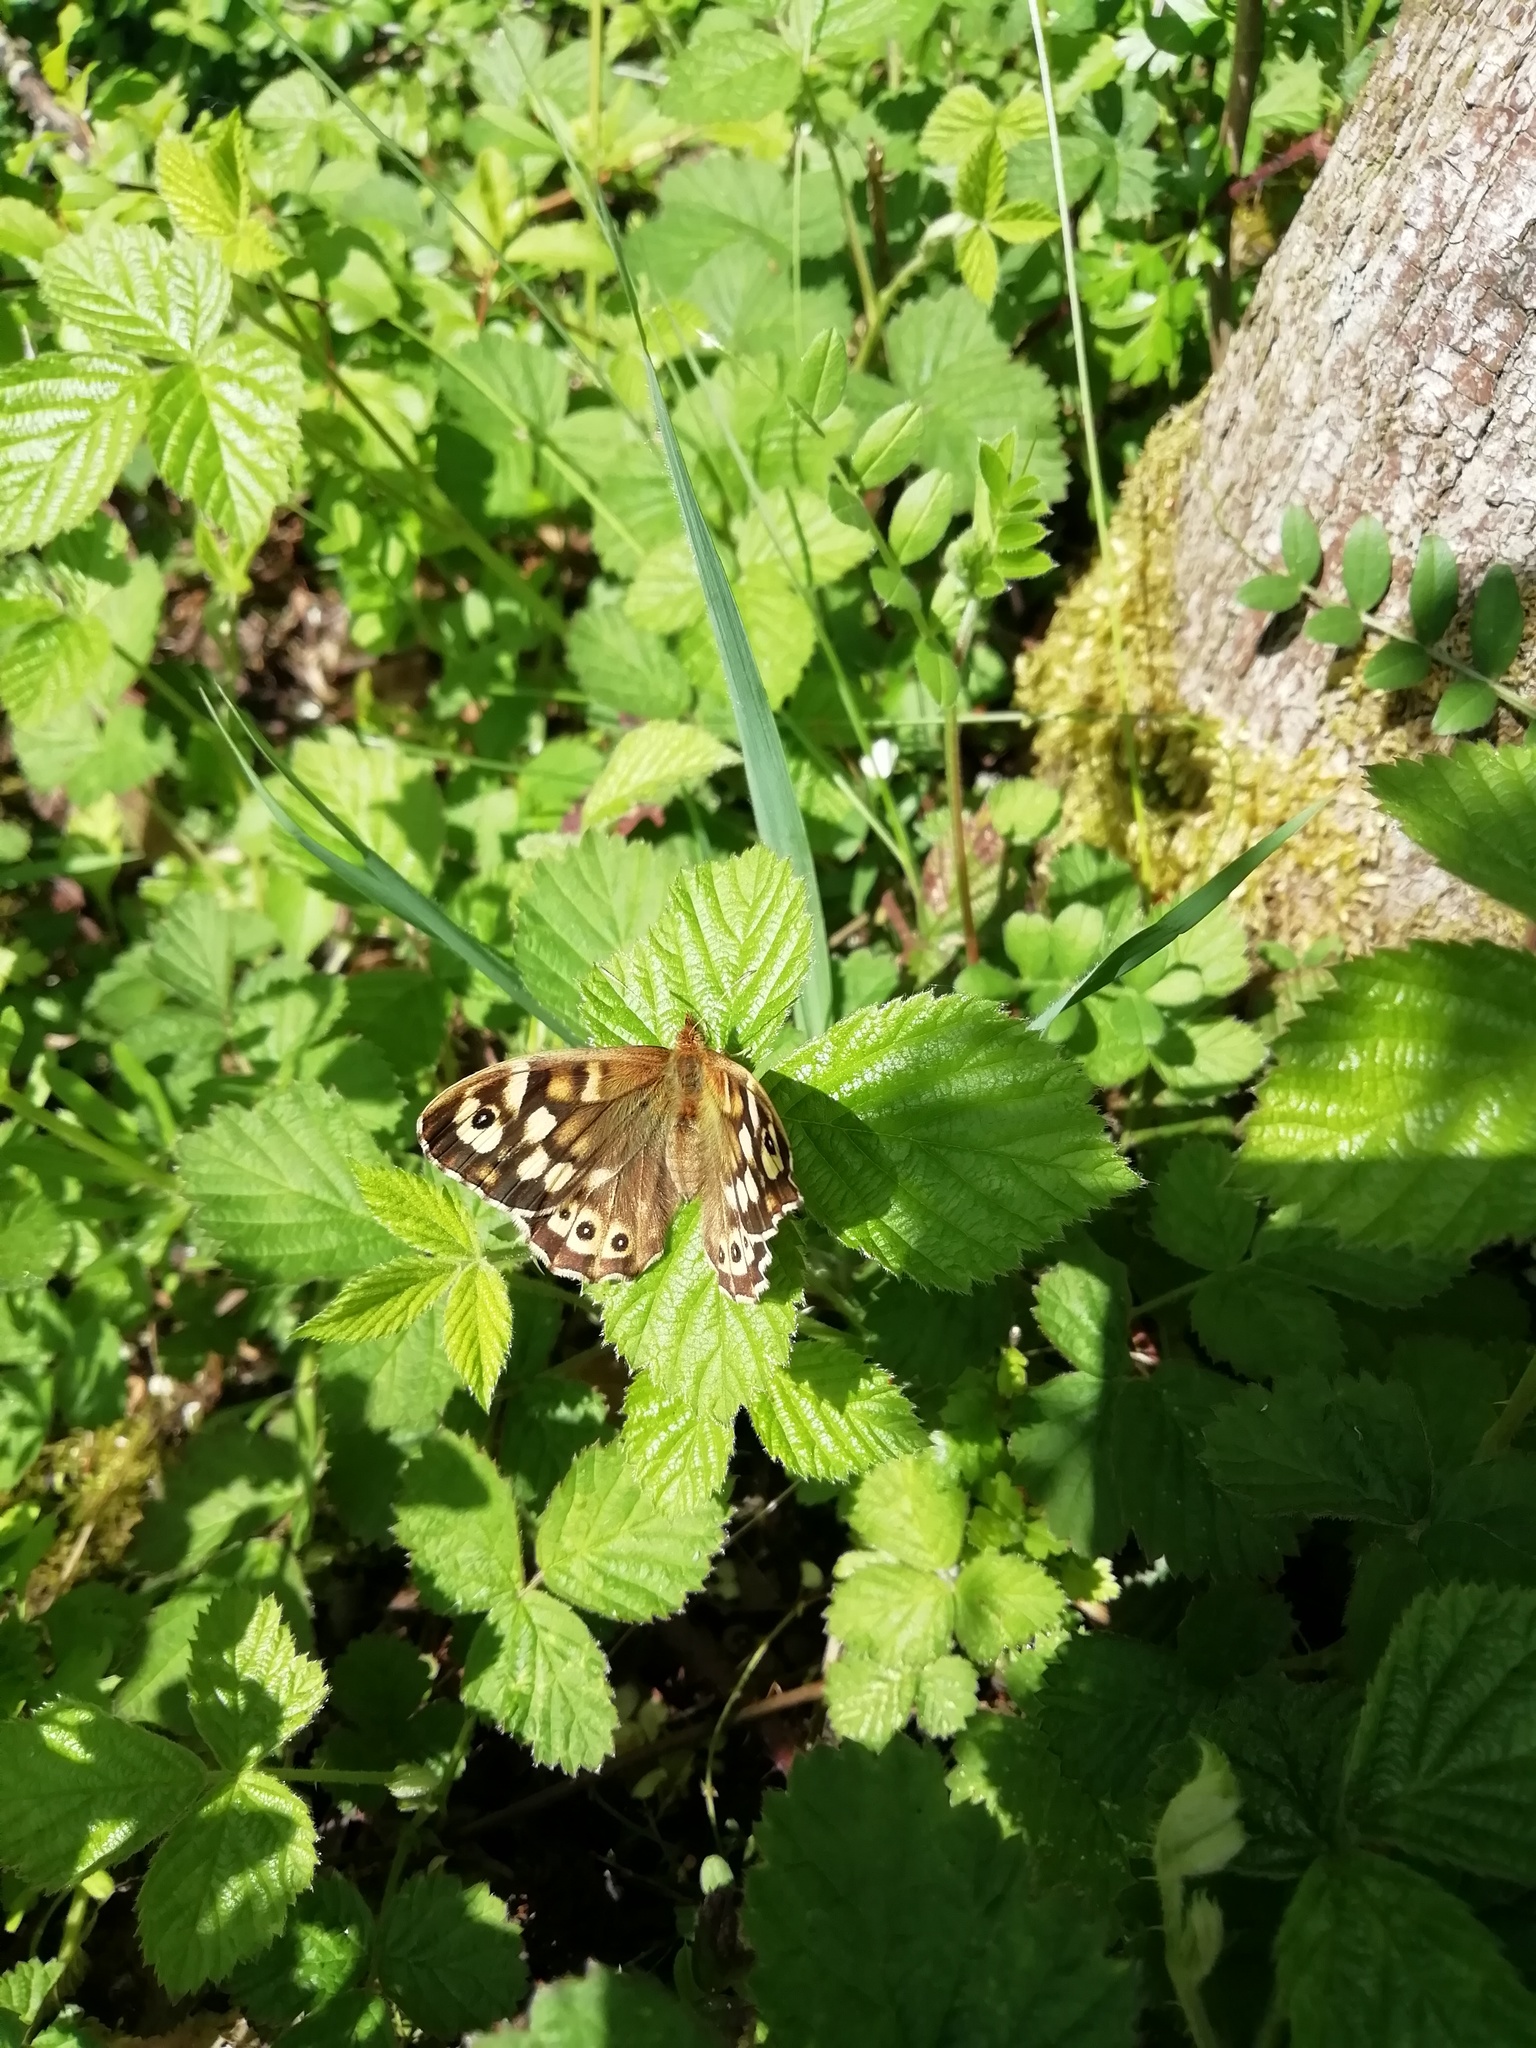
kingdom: Animalia
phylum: Arthropoda
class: Insecta
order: Lepidoptera
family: Nymphalidae
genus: Pararge
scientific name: Pararge aegeria
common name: Speckled wood
